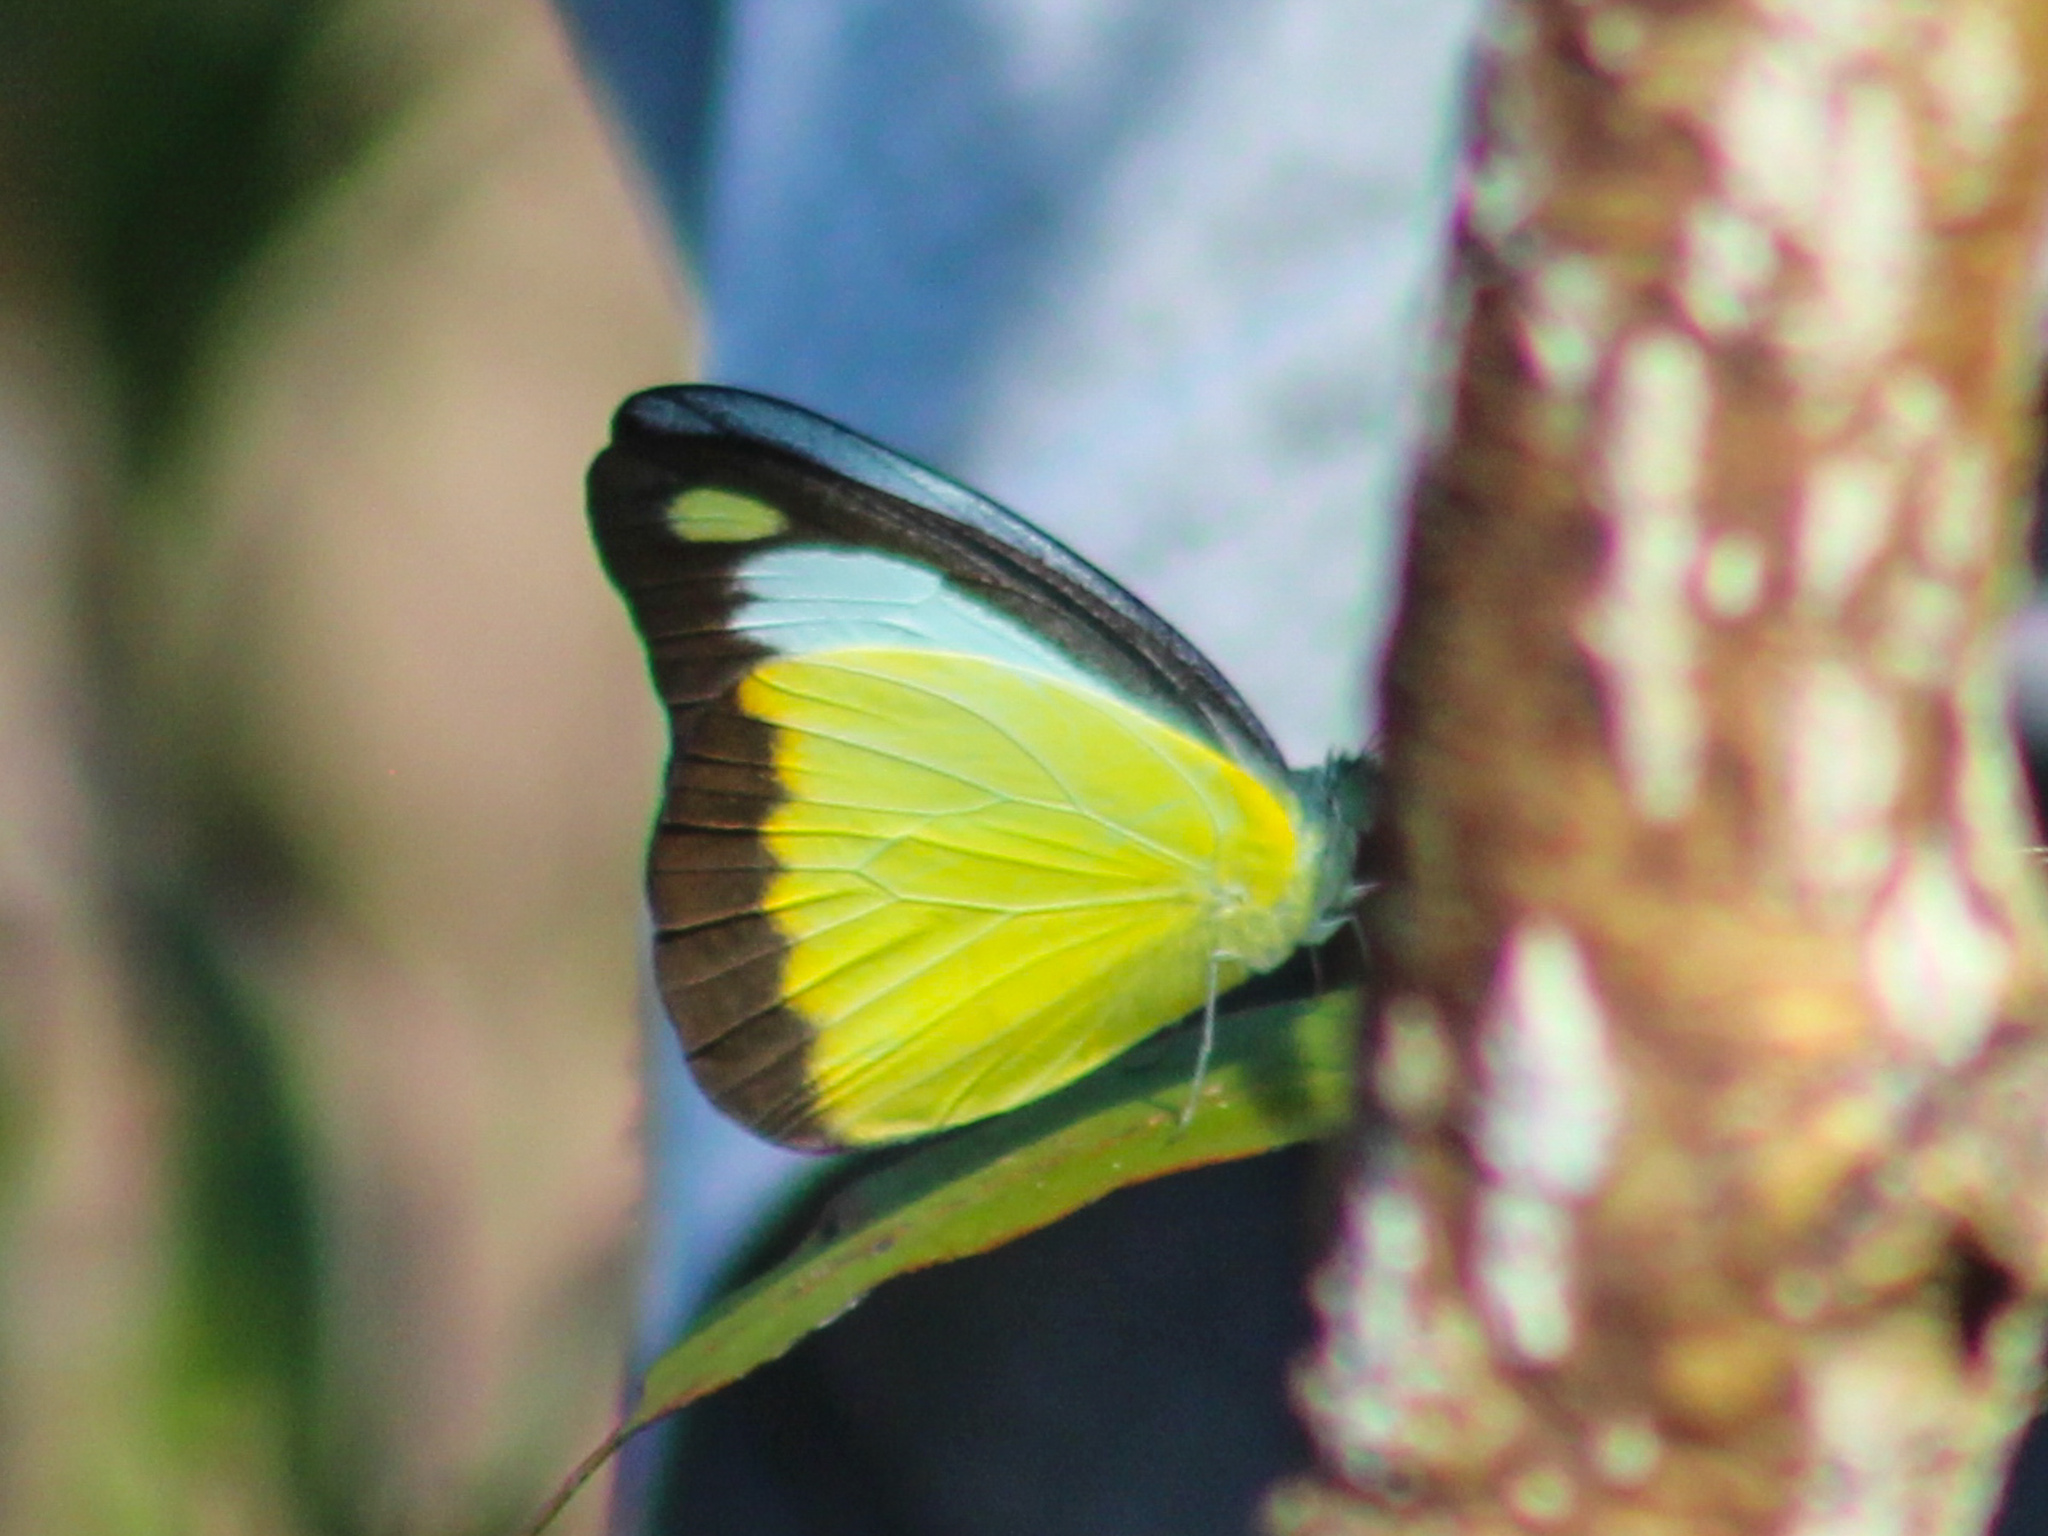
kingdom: Animalia
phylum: Arthropoda
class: Insecta
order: Lepidoptera
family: Pieridae
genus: Appias
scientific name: Appias lyncida
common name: Chocolate albatross
